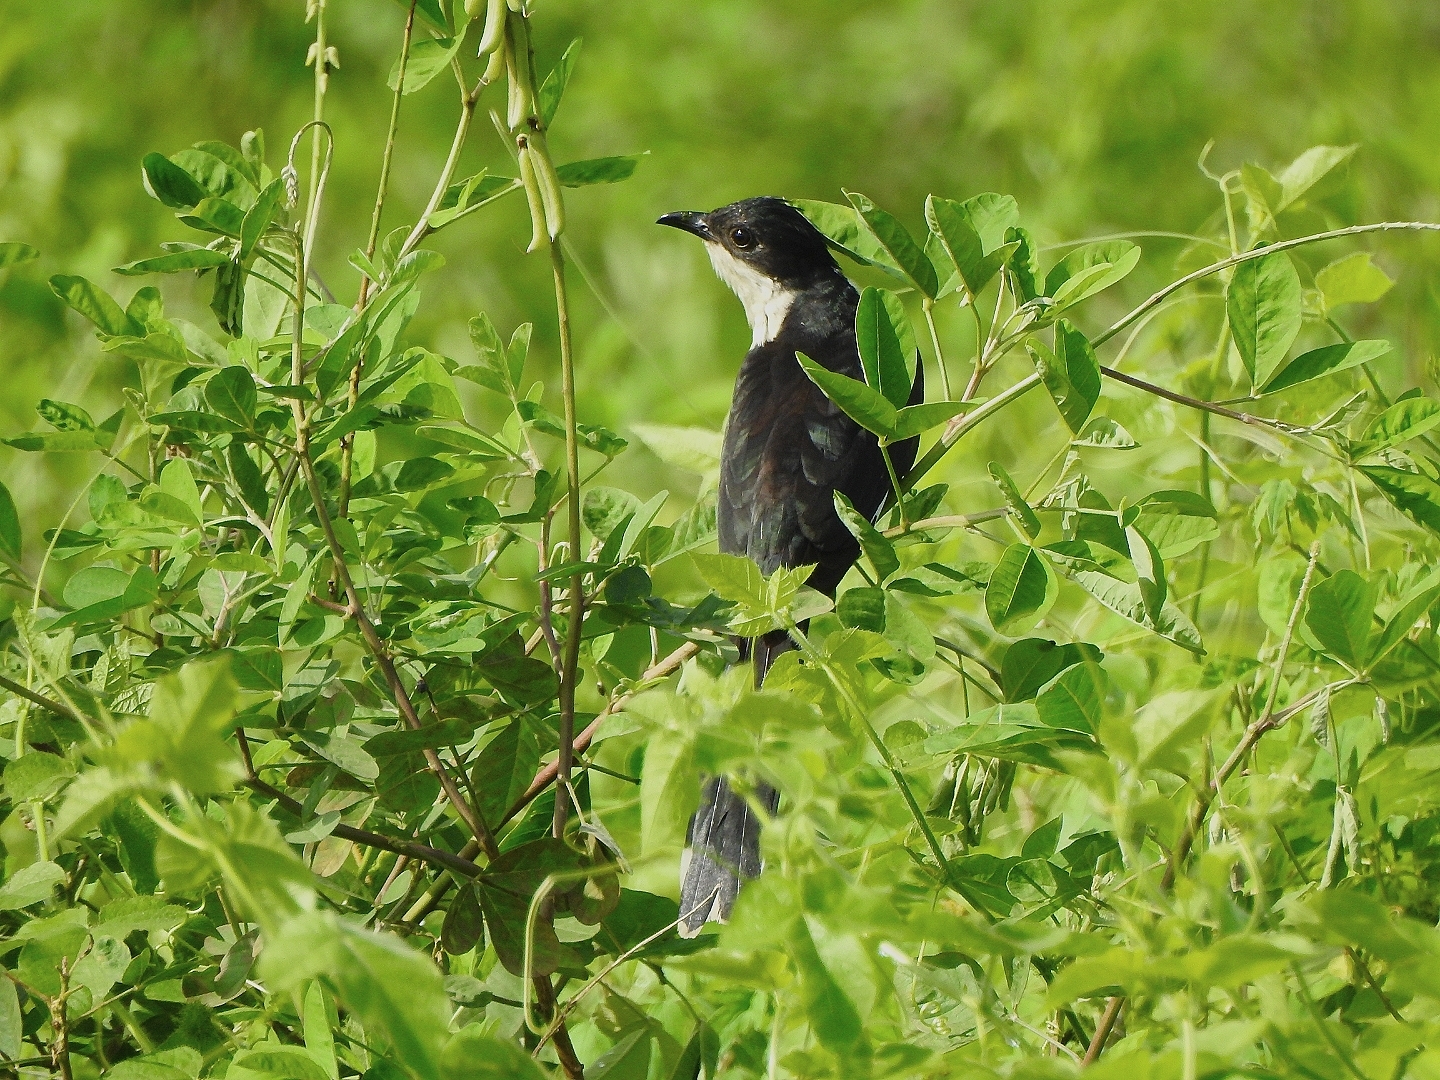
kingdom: Animalia
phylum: Chordata
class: Aves
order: Cuculiformes
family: Cuculidae
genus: Clamator
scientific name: Clamator jacobinus
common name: Jacobin cuckoo
